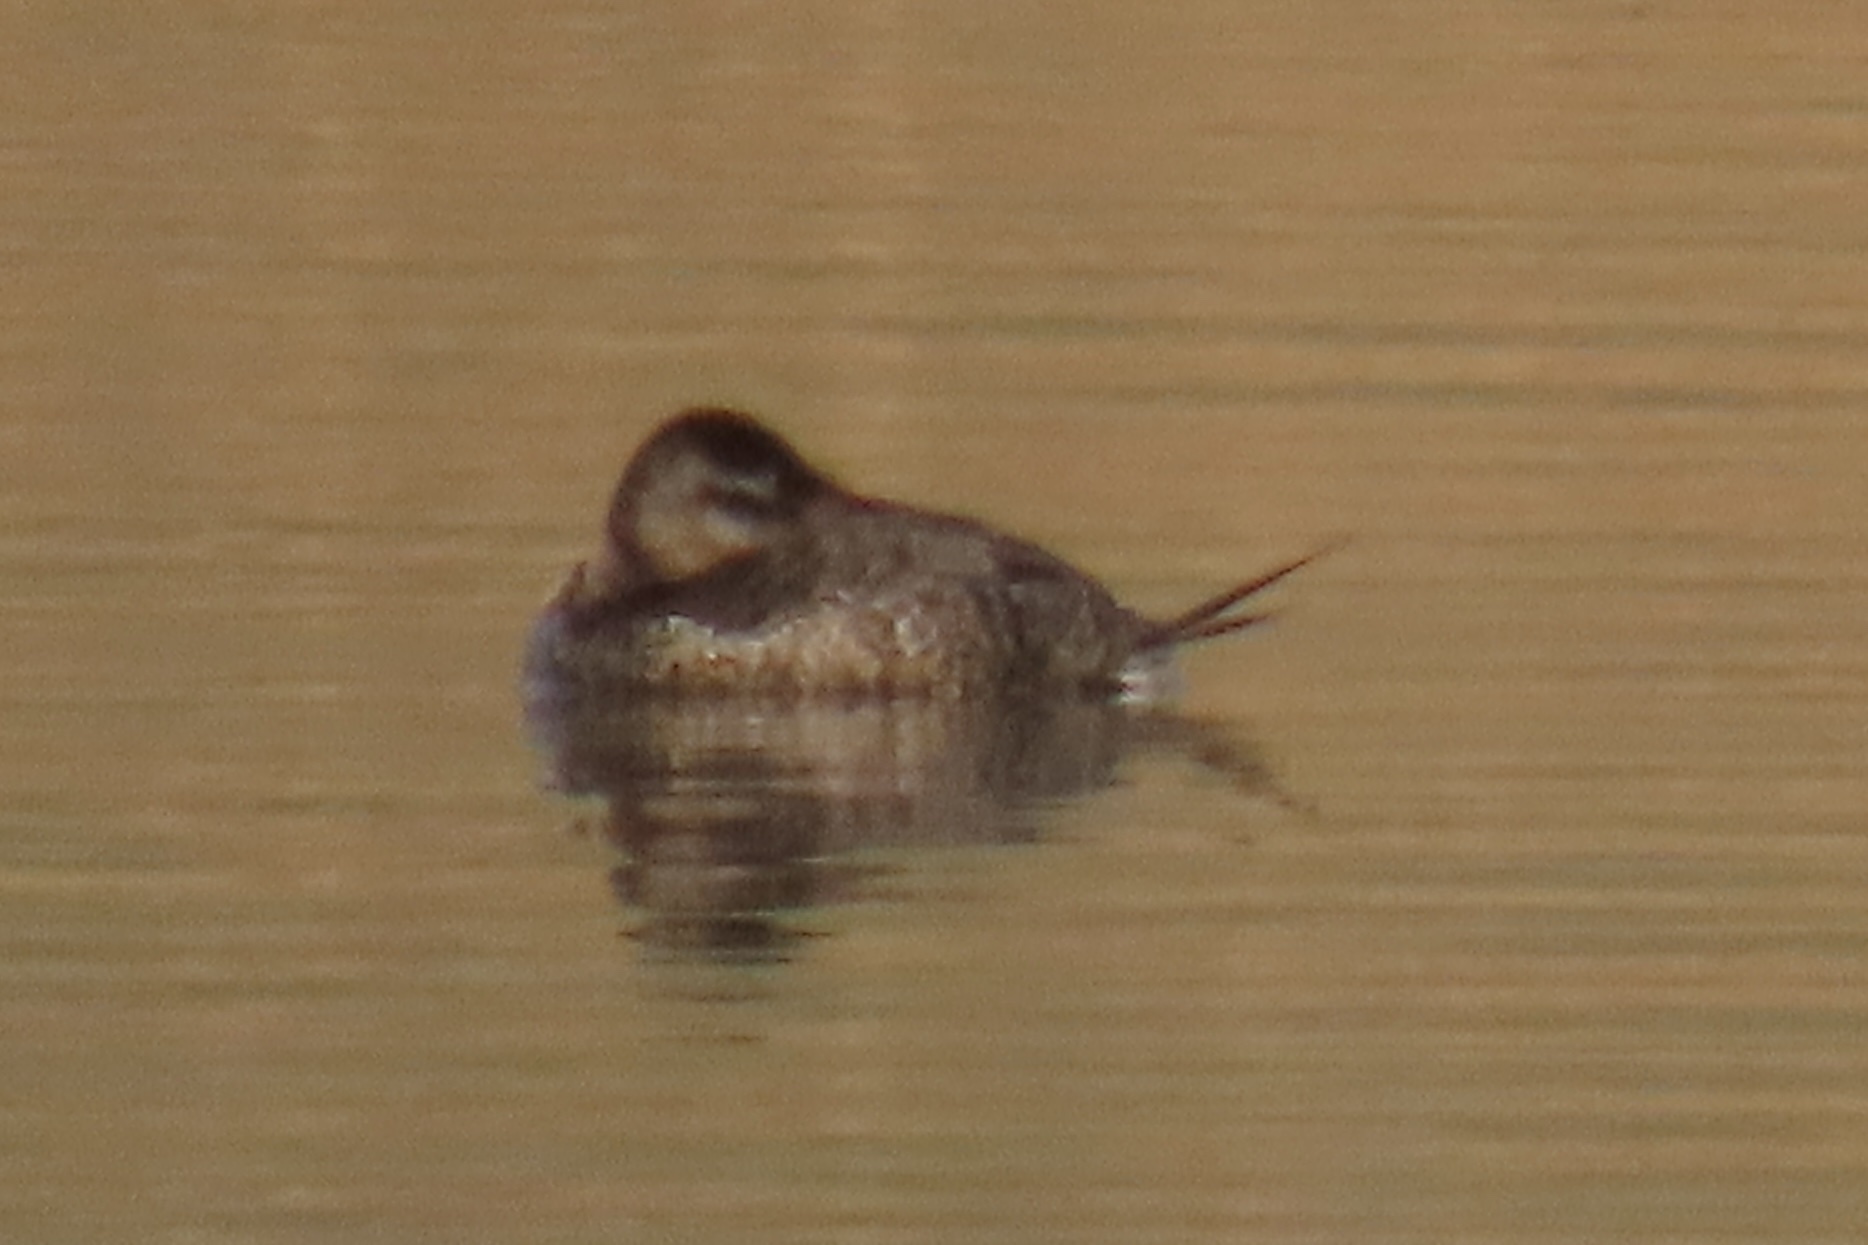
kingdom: Animalia
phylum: Chordata
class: Aves
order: Anseriformes
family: Anatidae
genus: Oxyura
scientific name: Oxyura jamaicensis
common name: Ruddy duck
